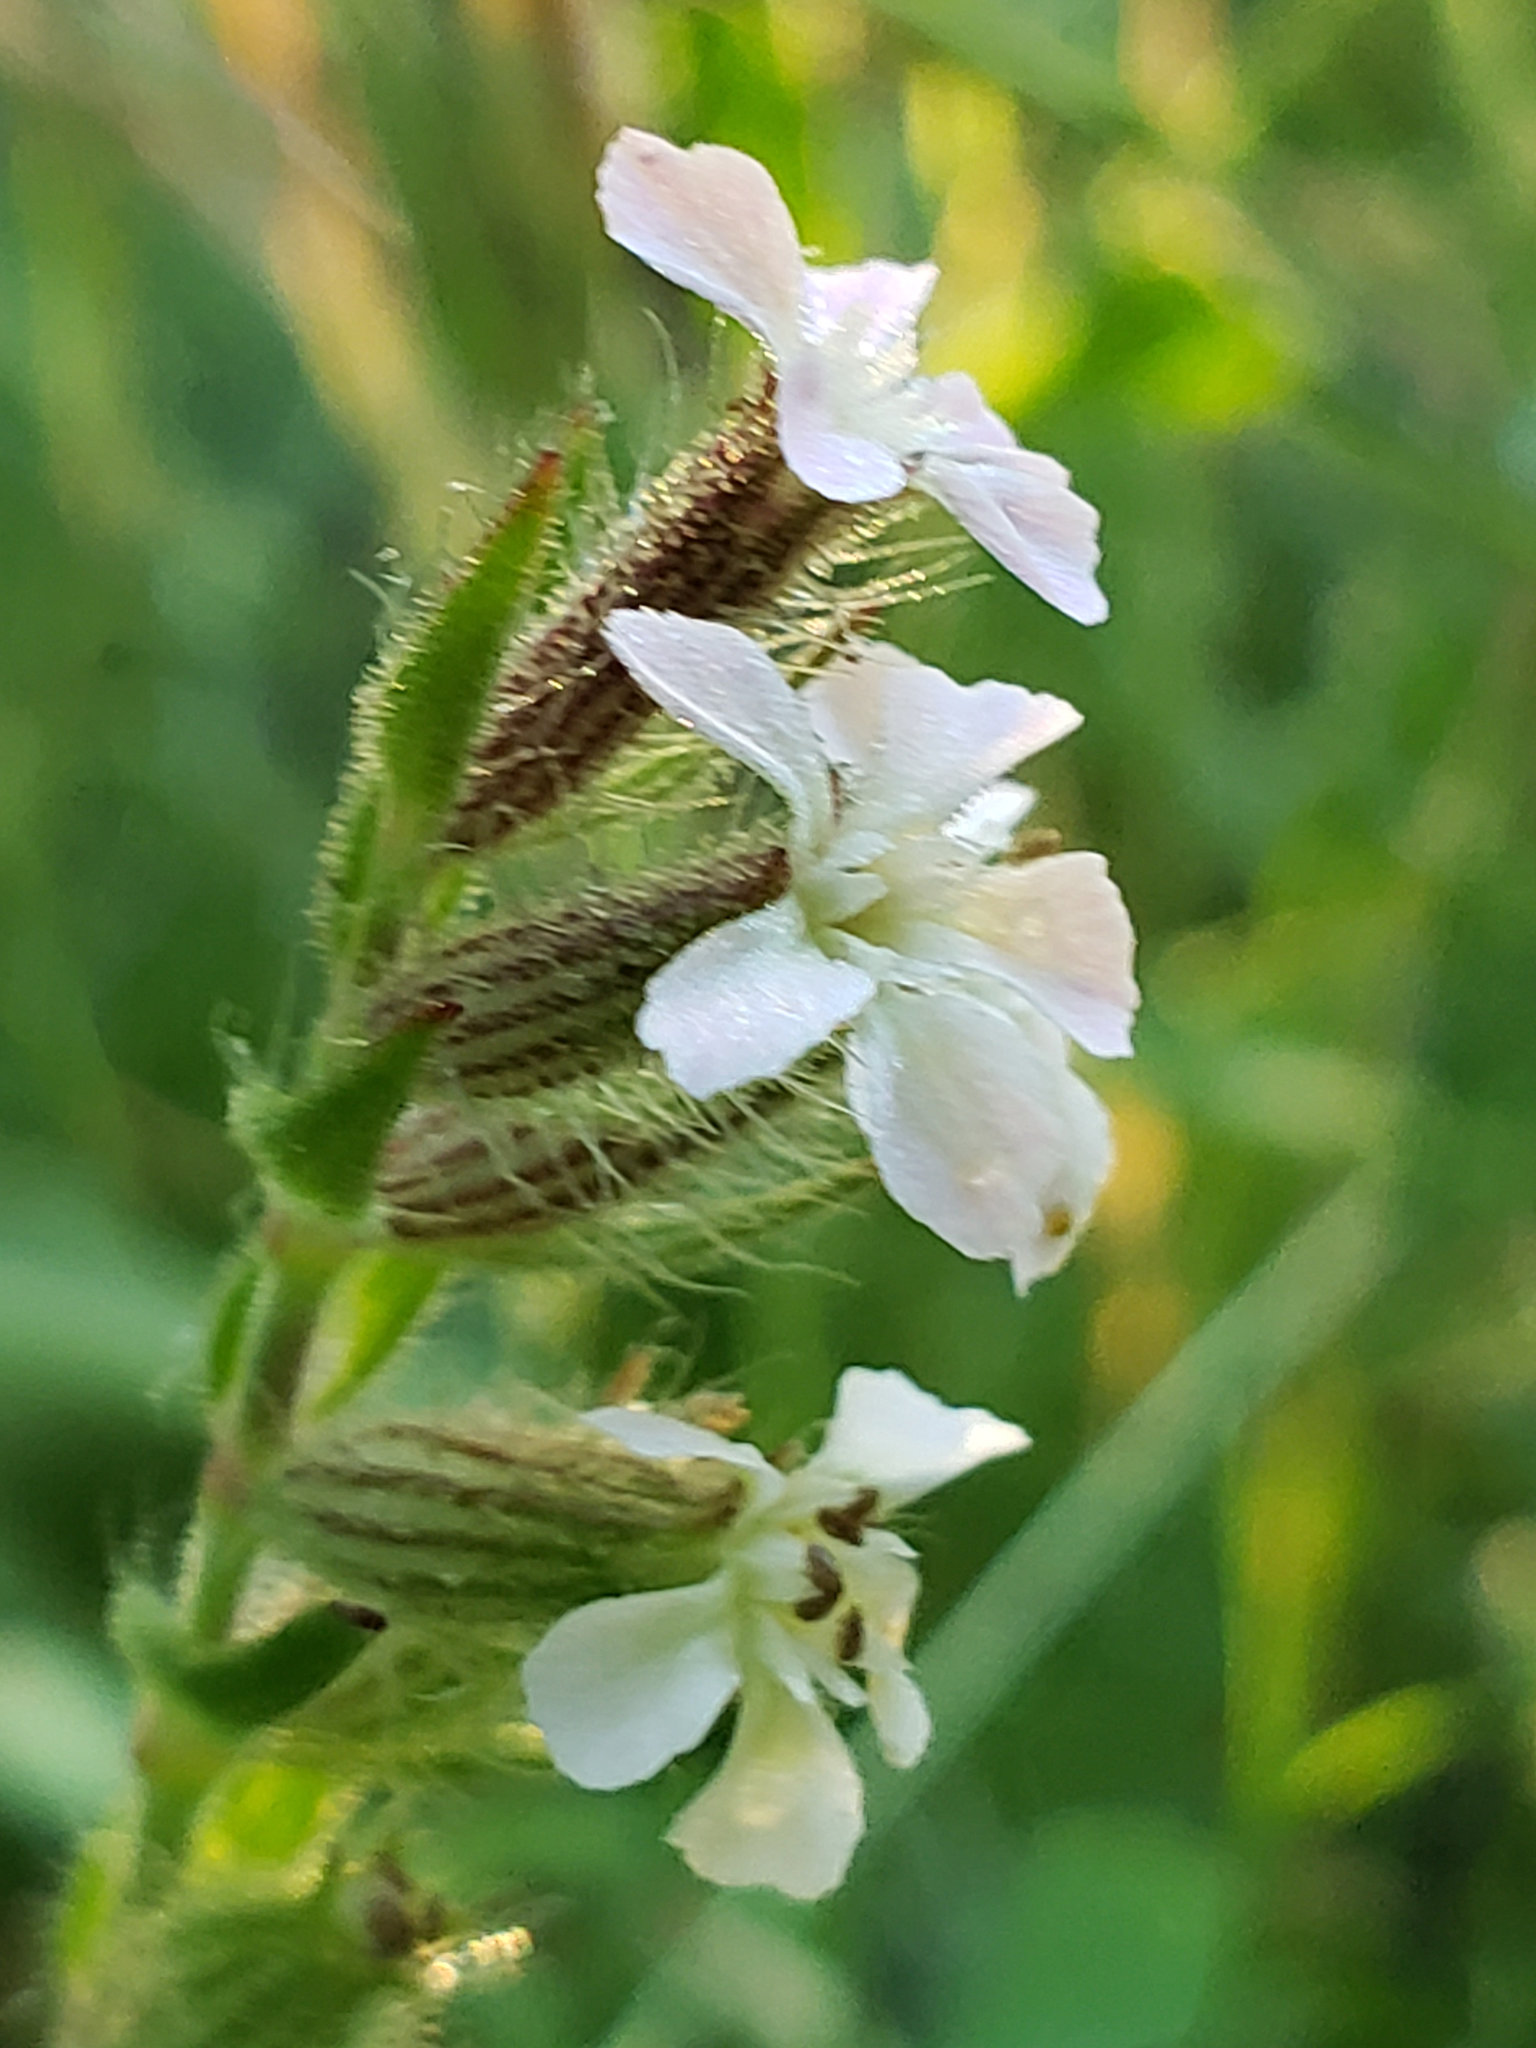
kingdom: Plantae
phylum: Tracheophyta
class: Magnoliopsida
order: Caryophyllales
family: Caryophyllaceae
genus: Silene
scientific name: Silene gallica
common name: Small-flowered catchfly
